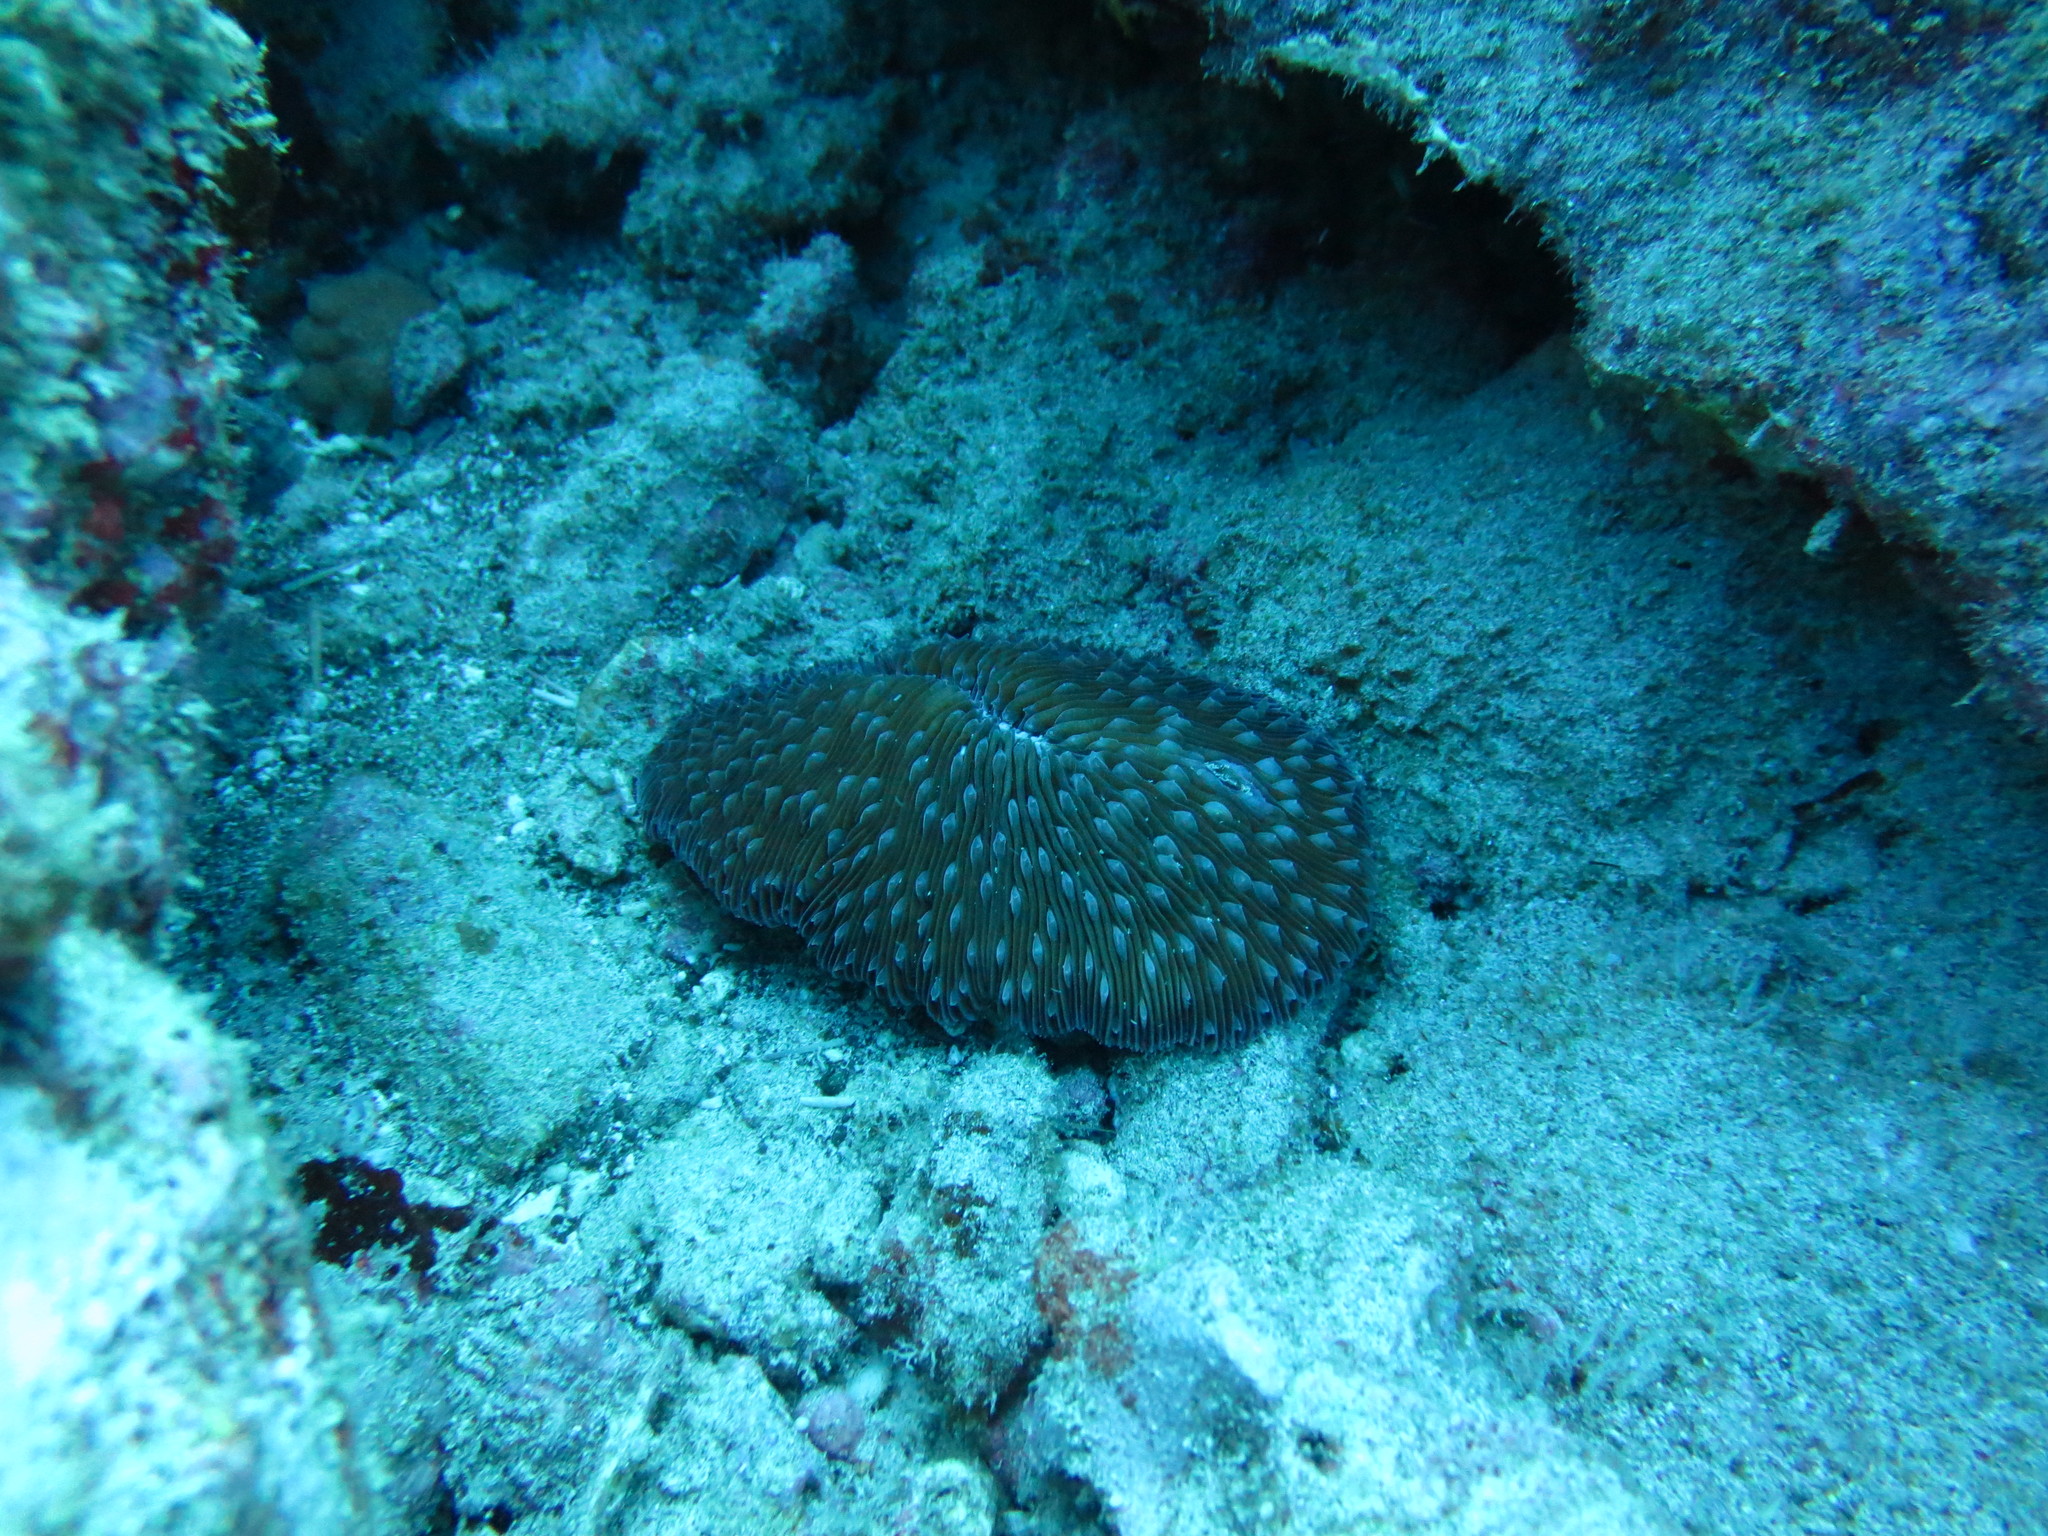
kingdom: Animalia
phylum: Cnidaria
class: Anthozoa
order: Scleractinia
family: Fungiidae
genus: Lobactis
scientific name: Lobactis scutaria
